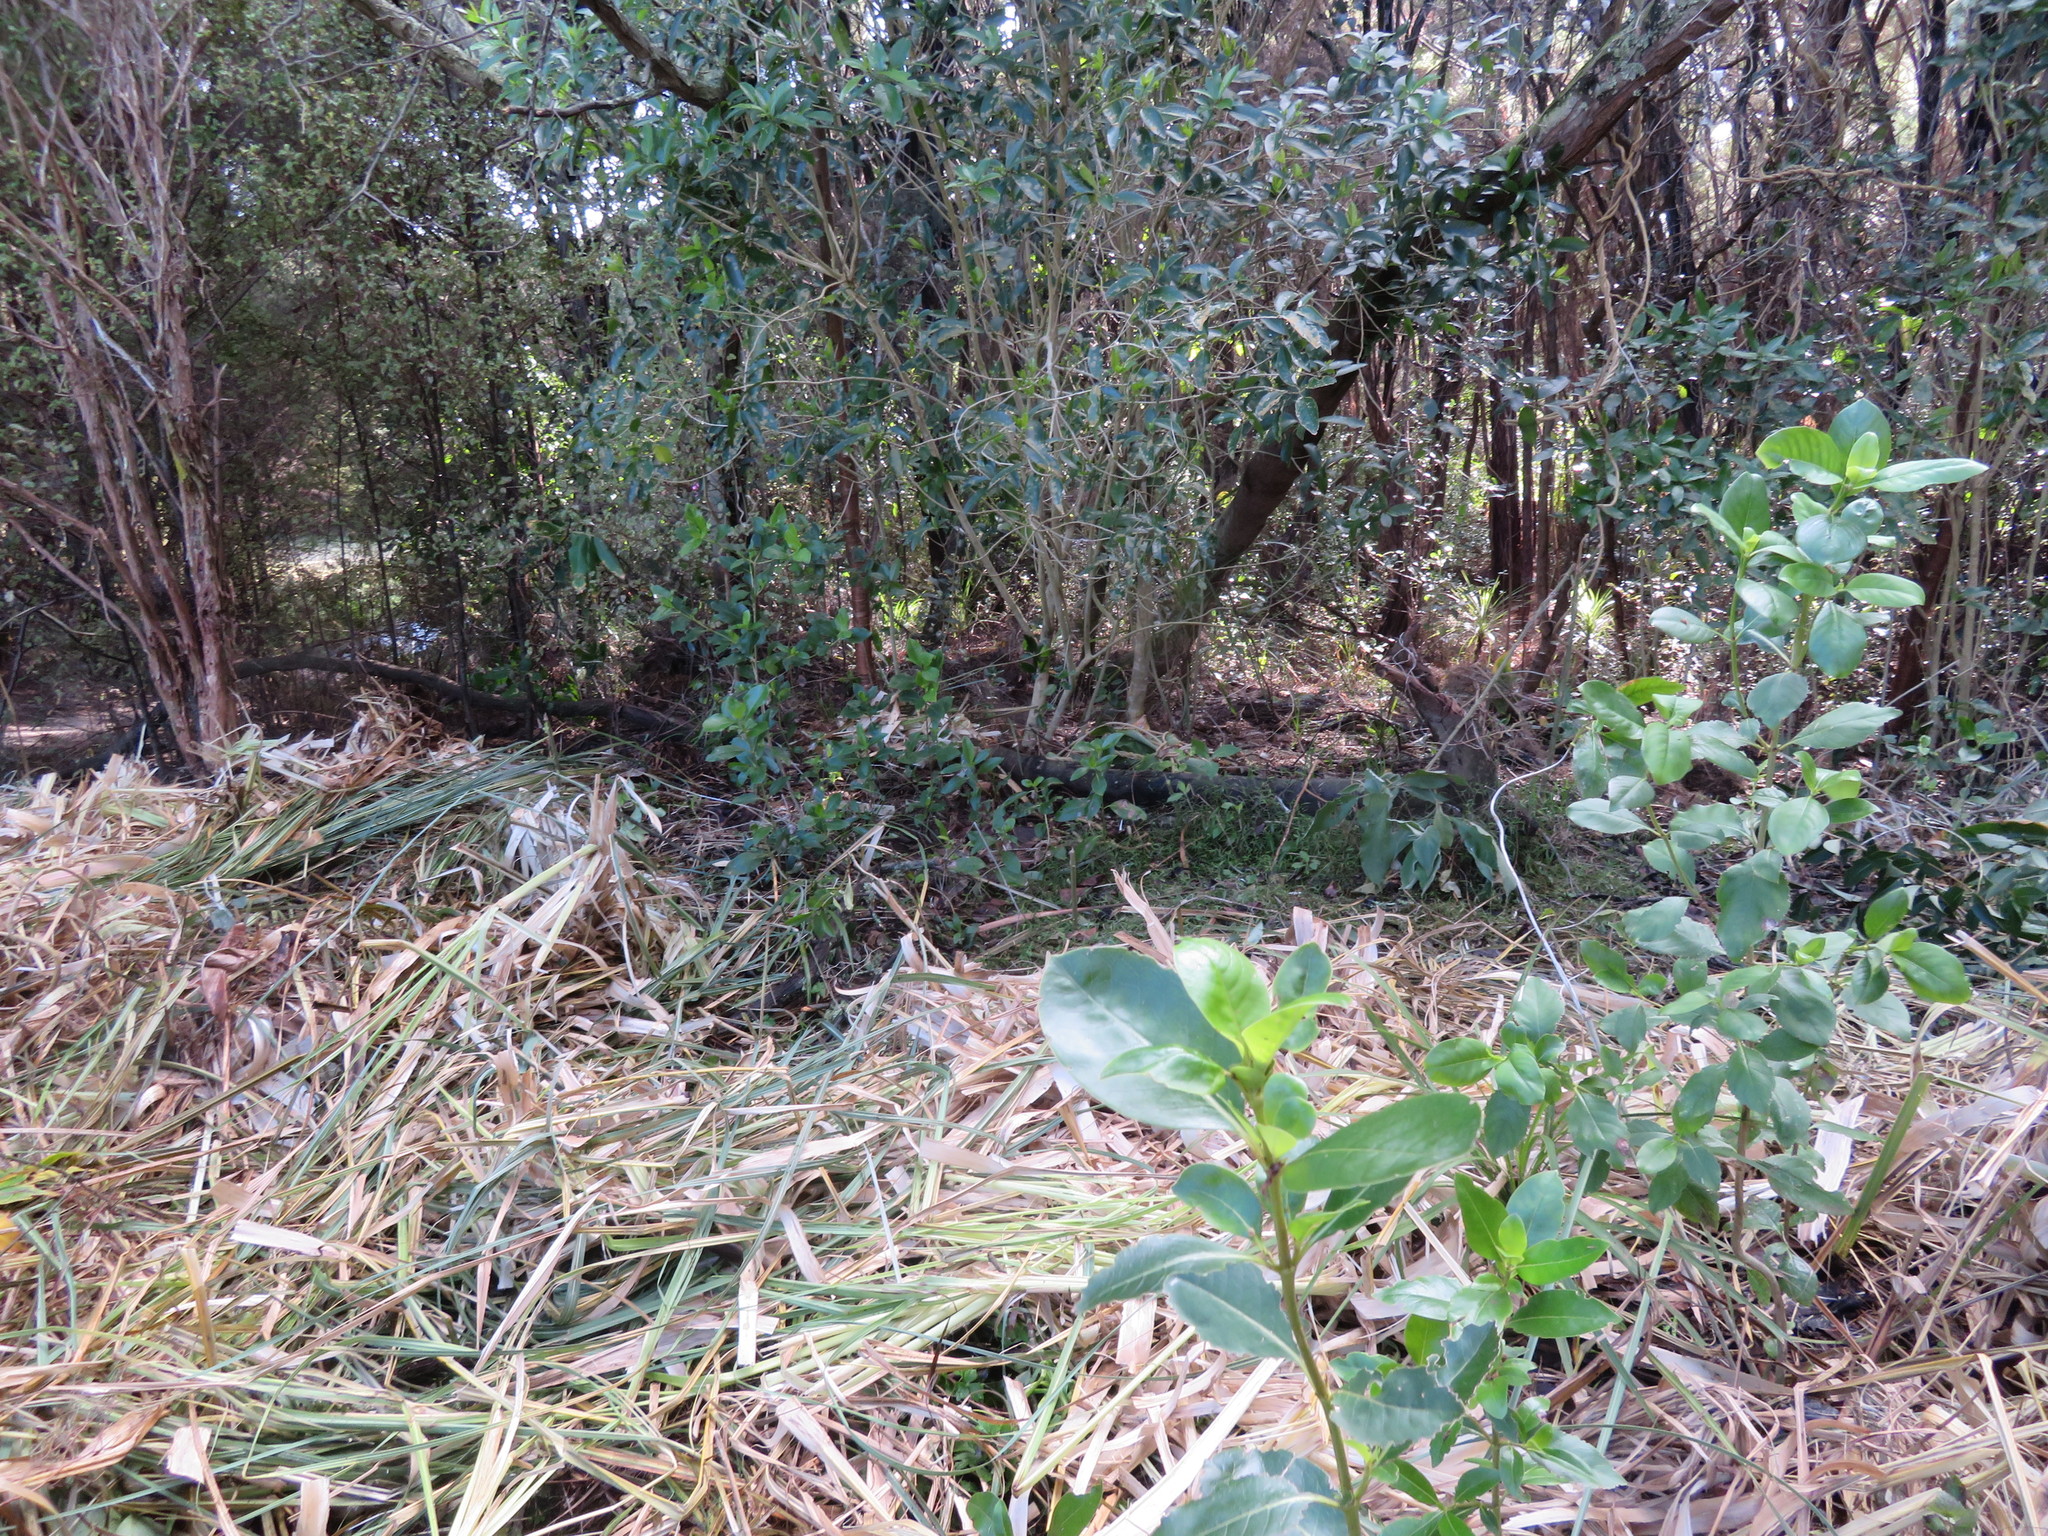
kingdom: Plantae
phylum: Tracheophyta
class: Magnoliopsida
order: Solanales
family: Solanaceae
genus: Solanum
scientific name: Solanum mauritianum
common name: Earleaf nightshade
